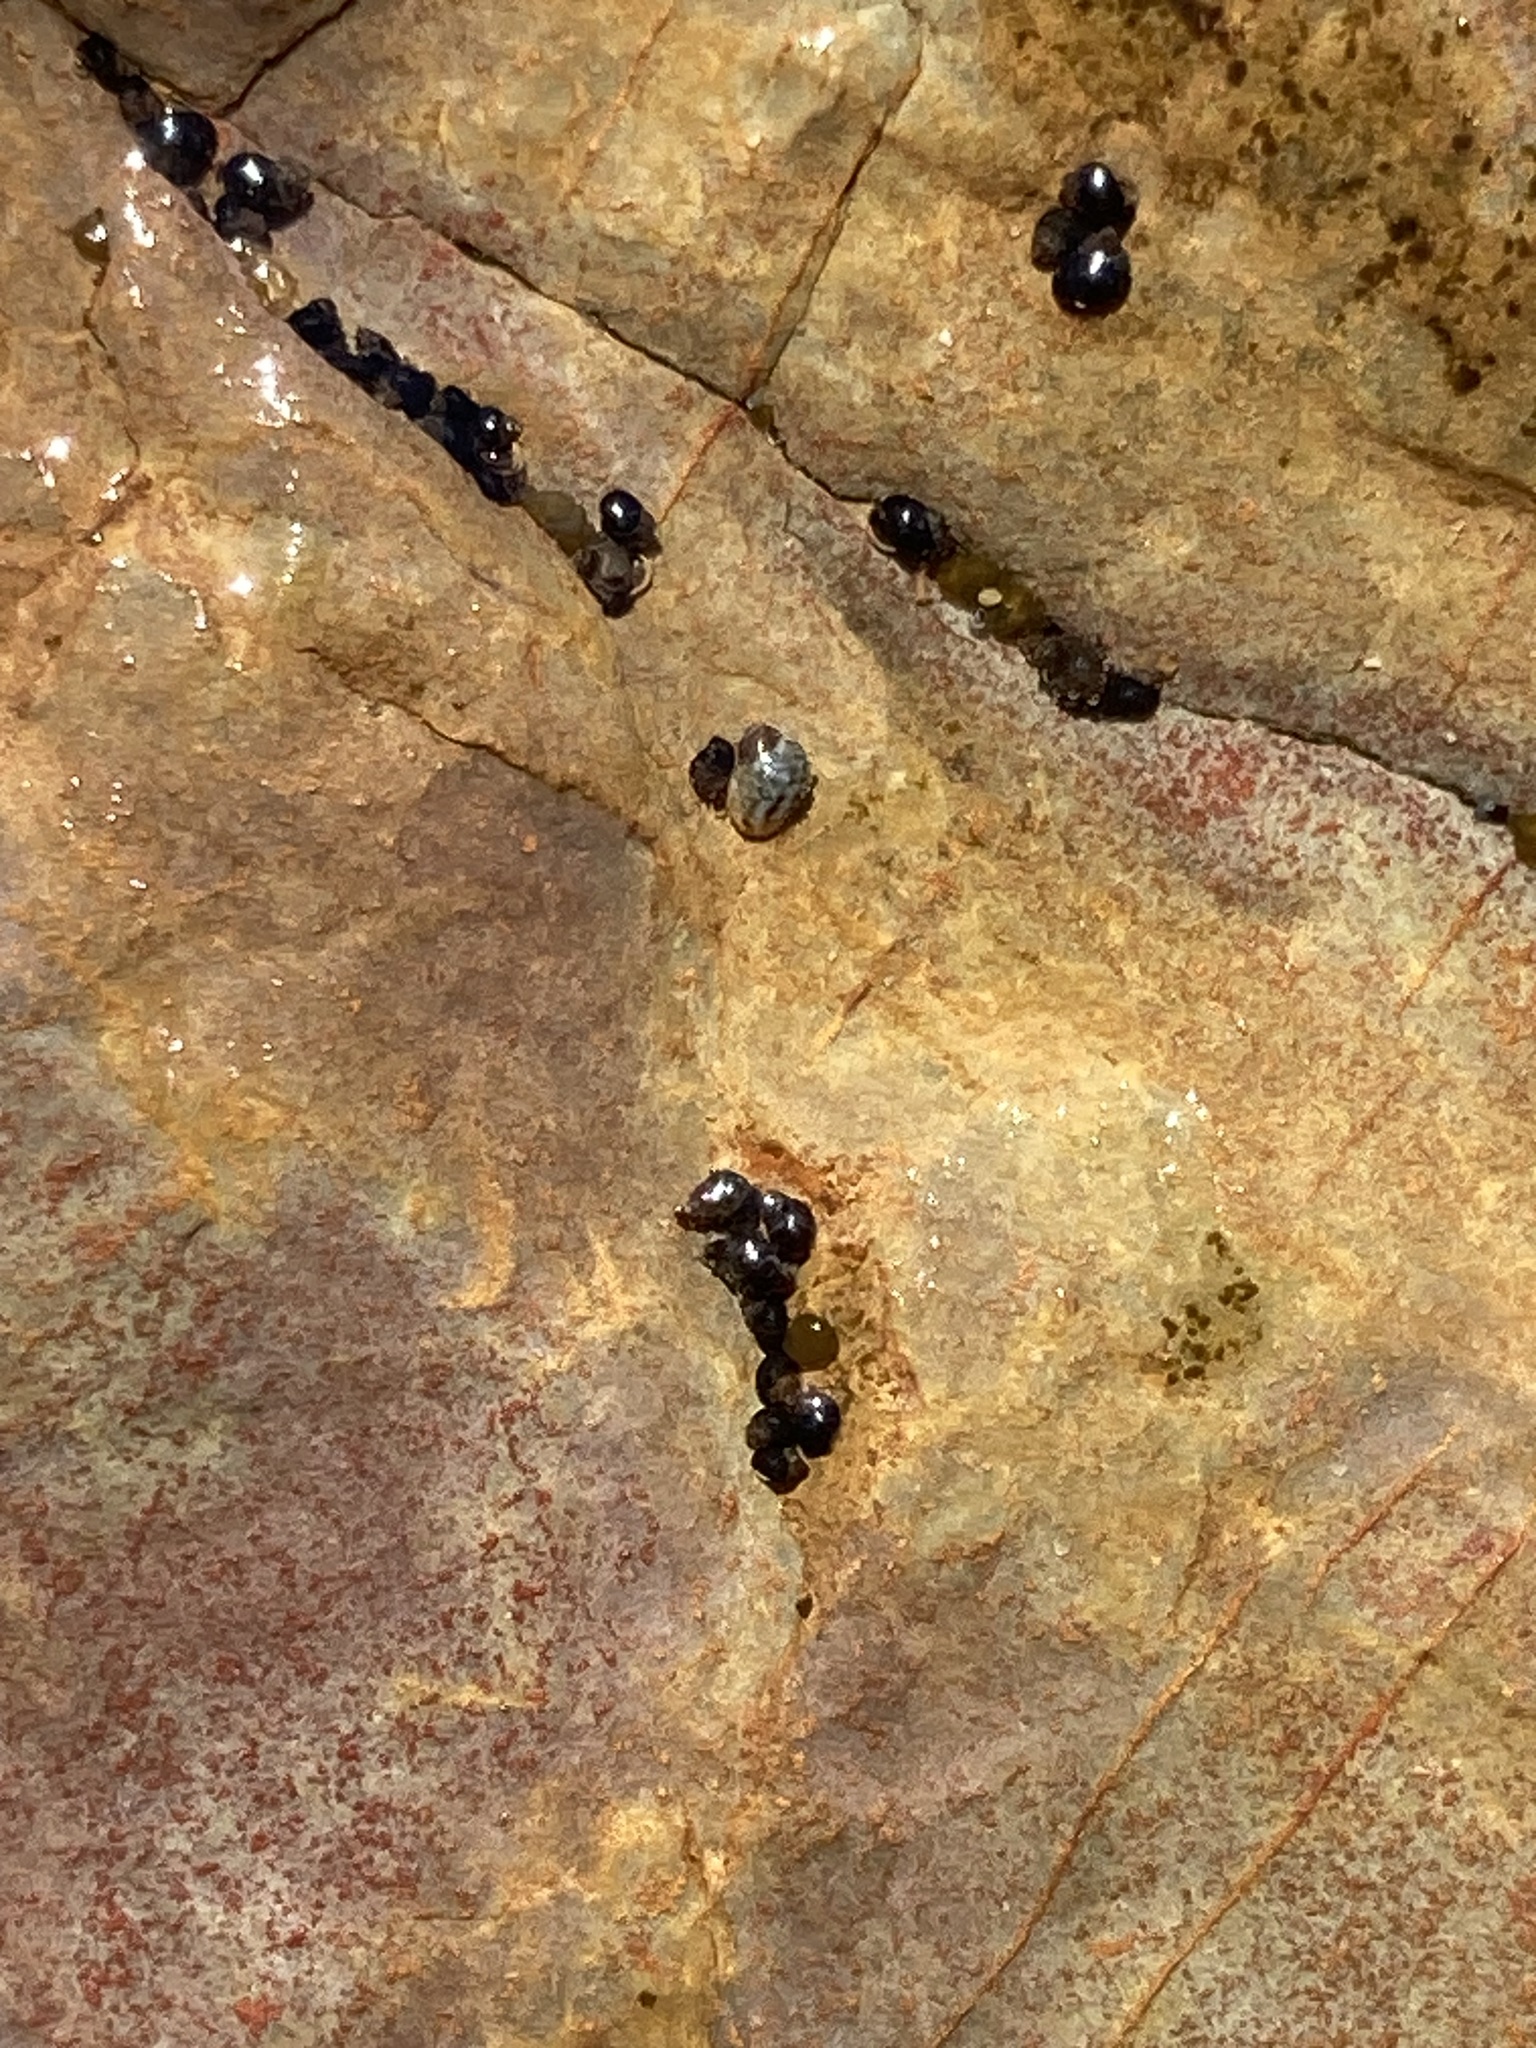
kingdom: Animalia
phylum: Mollusca
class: Gastropoda
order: Littorinimorpha
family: Littorinidae
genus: Afrolittorina
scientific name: Afrolittorina acutispira
